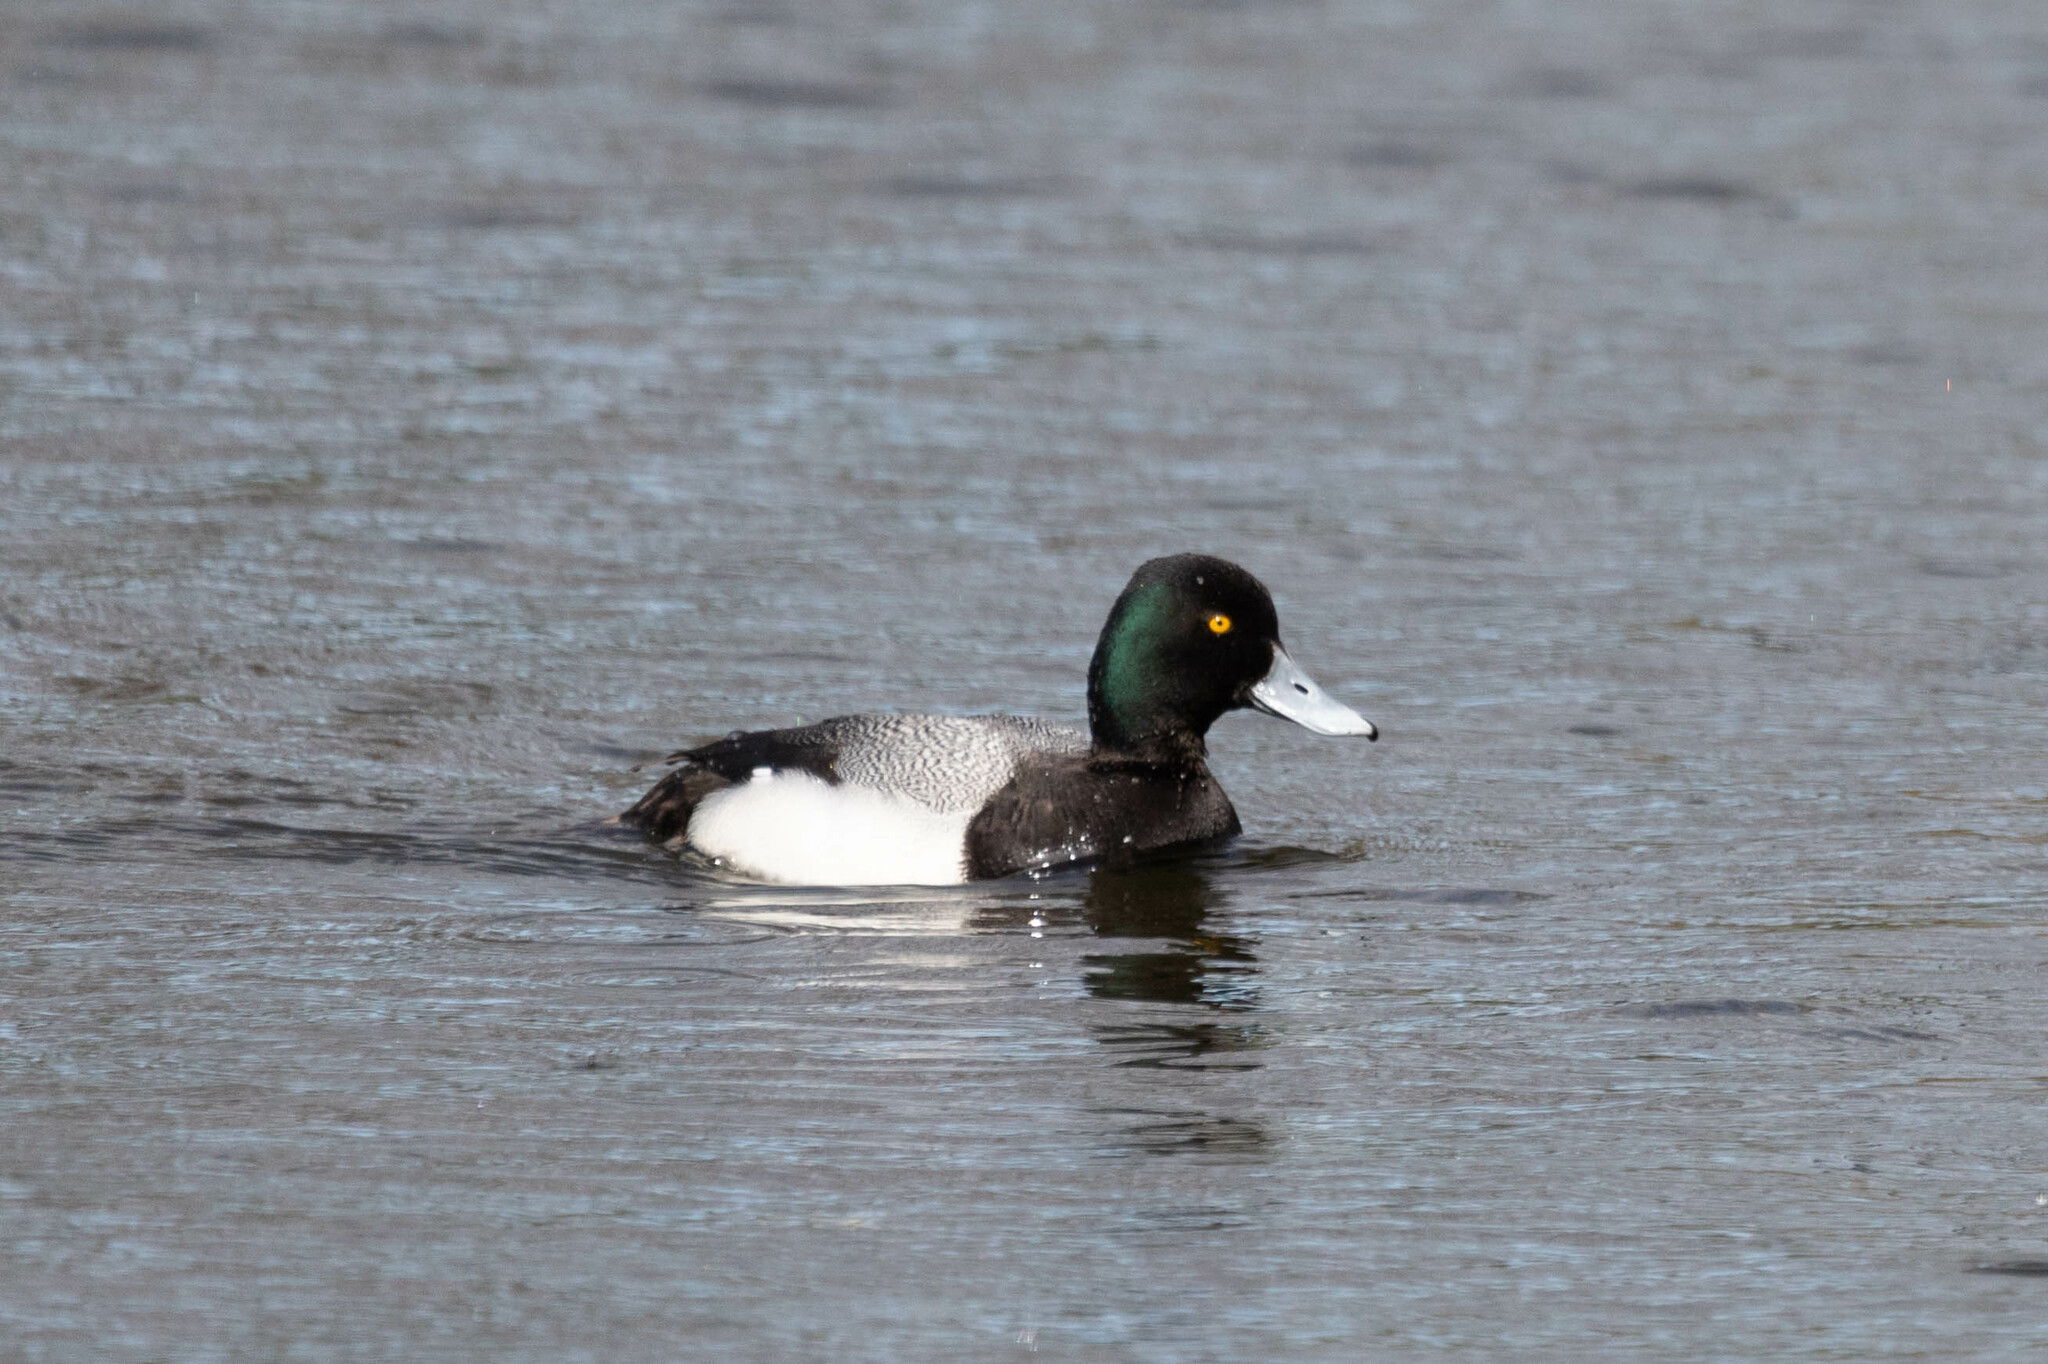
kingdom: Animalia
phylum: Chordata
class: Aves
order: Anseriformes
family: Anatidae
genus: Aythya
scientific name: Aythya affinis
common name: Lesser scaup
